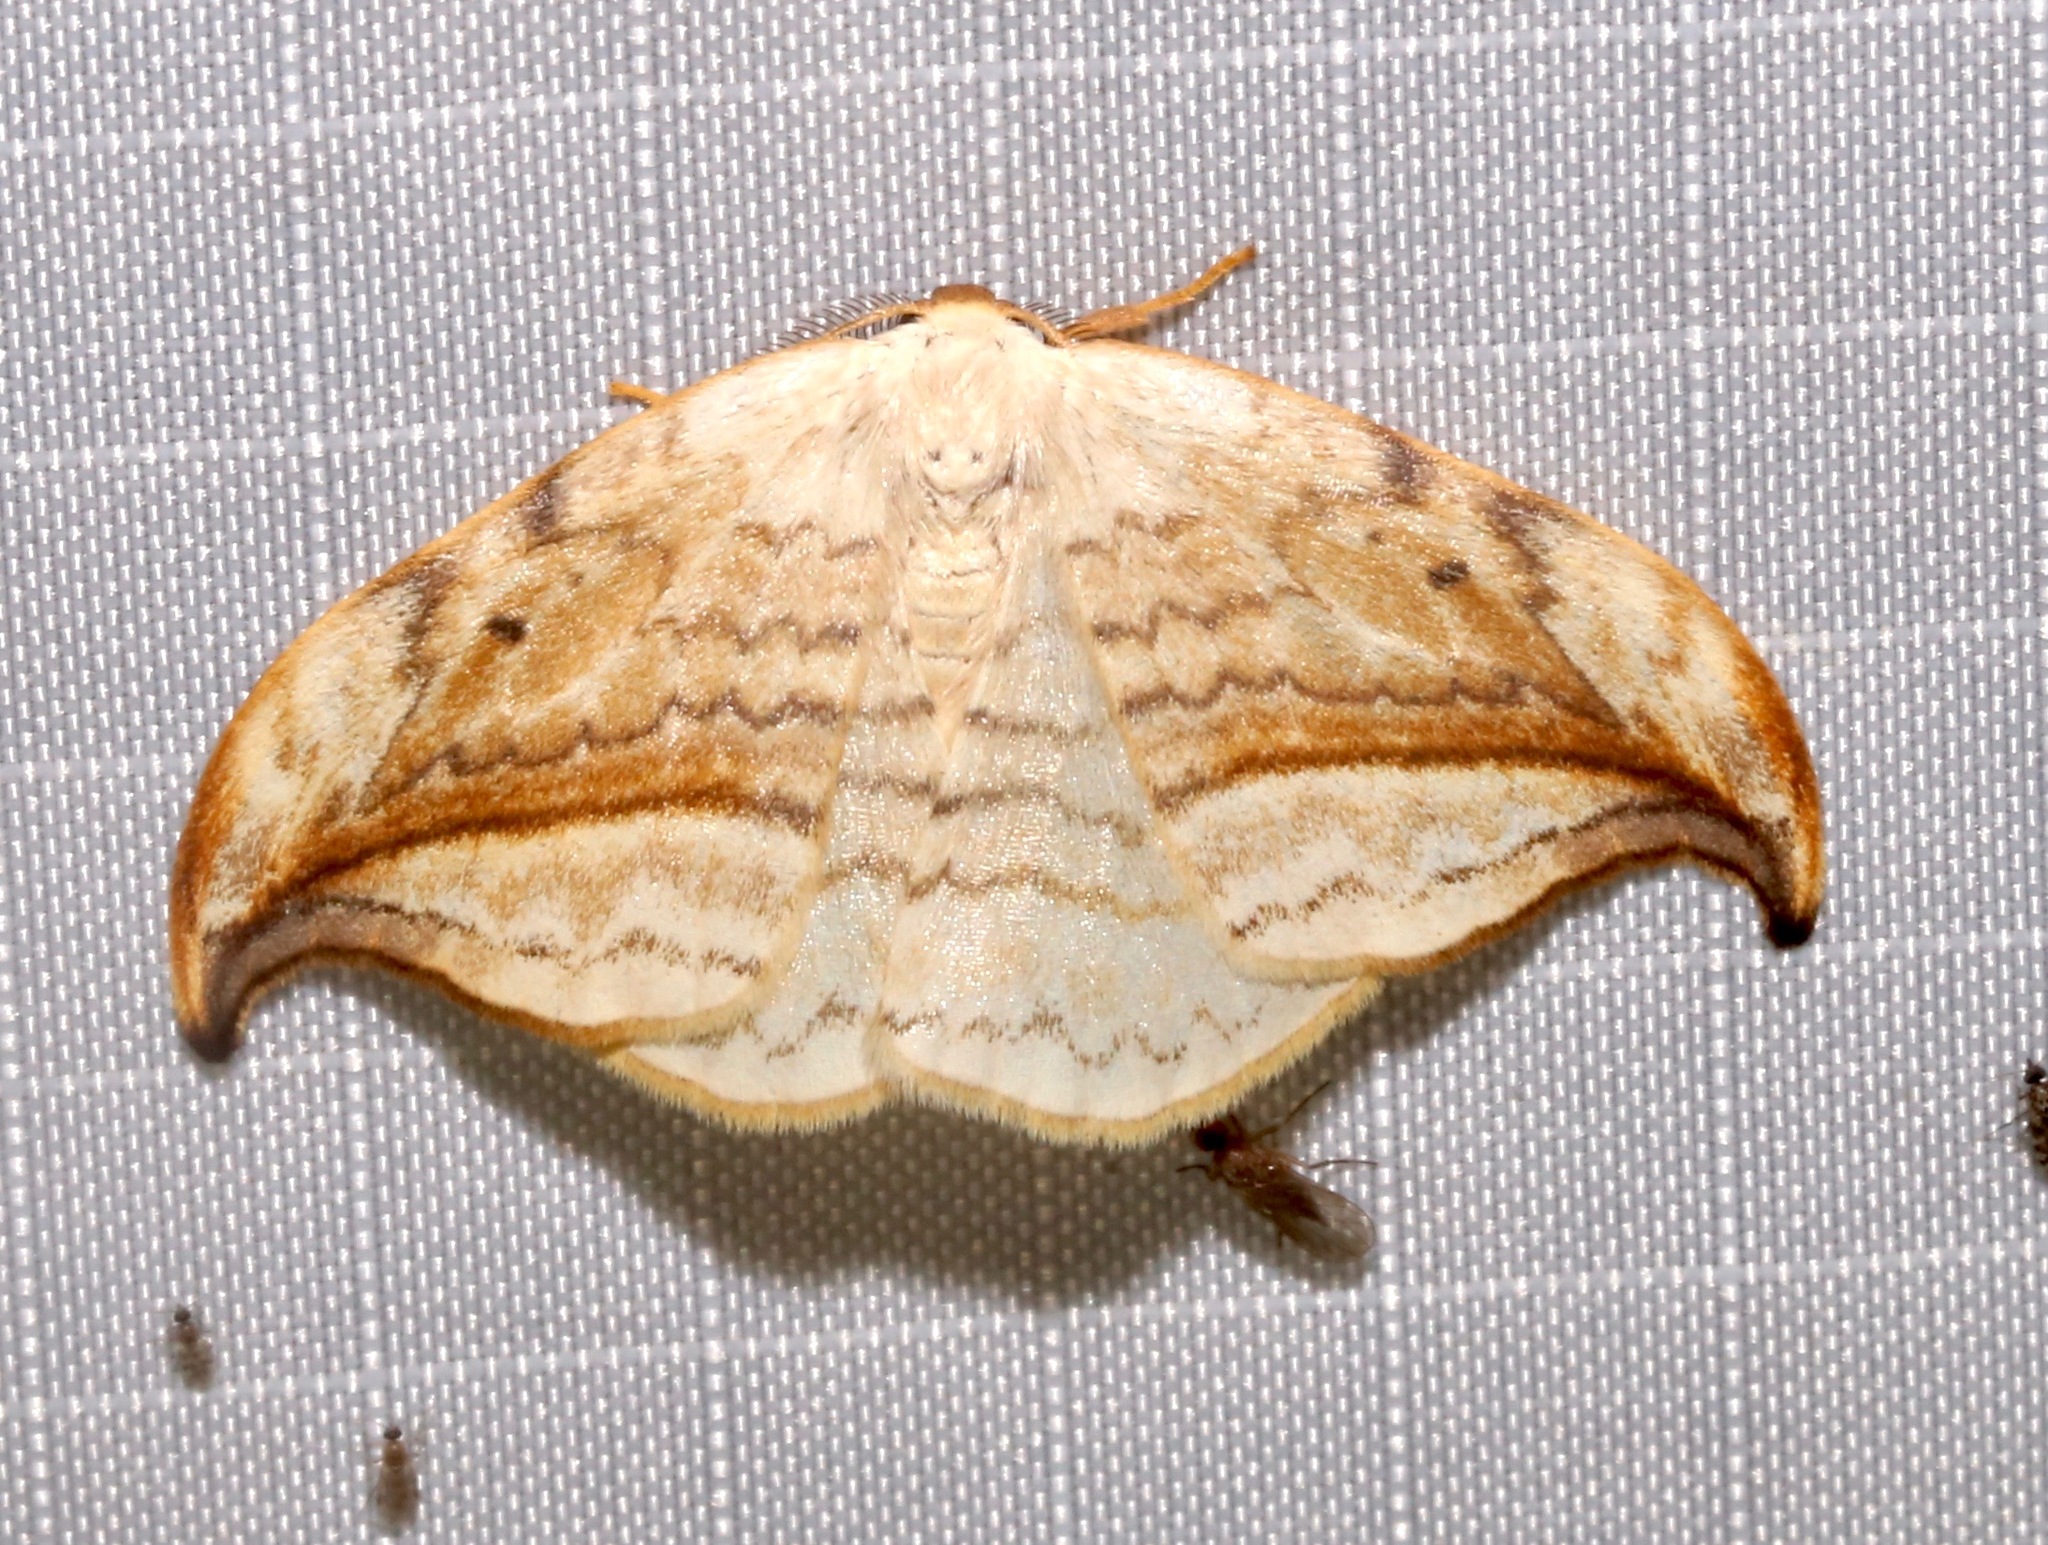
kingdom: Animalia
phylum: Arthropoda
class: Insecta
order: Lepidoptera
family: Drepanidae
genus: Drepana
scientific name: Drepana arcuata
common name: Arched hooktip moth
